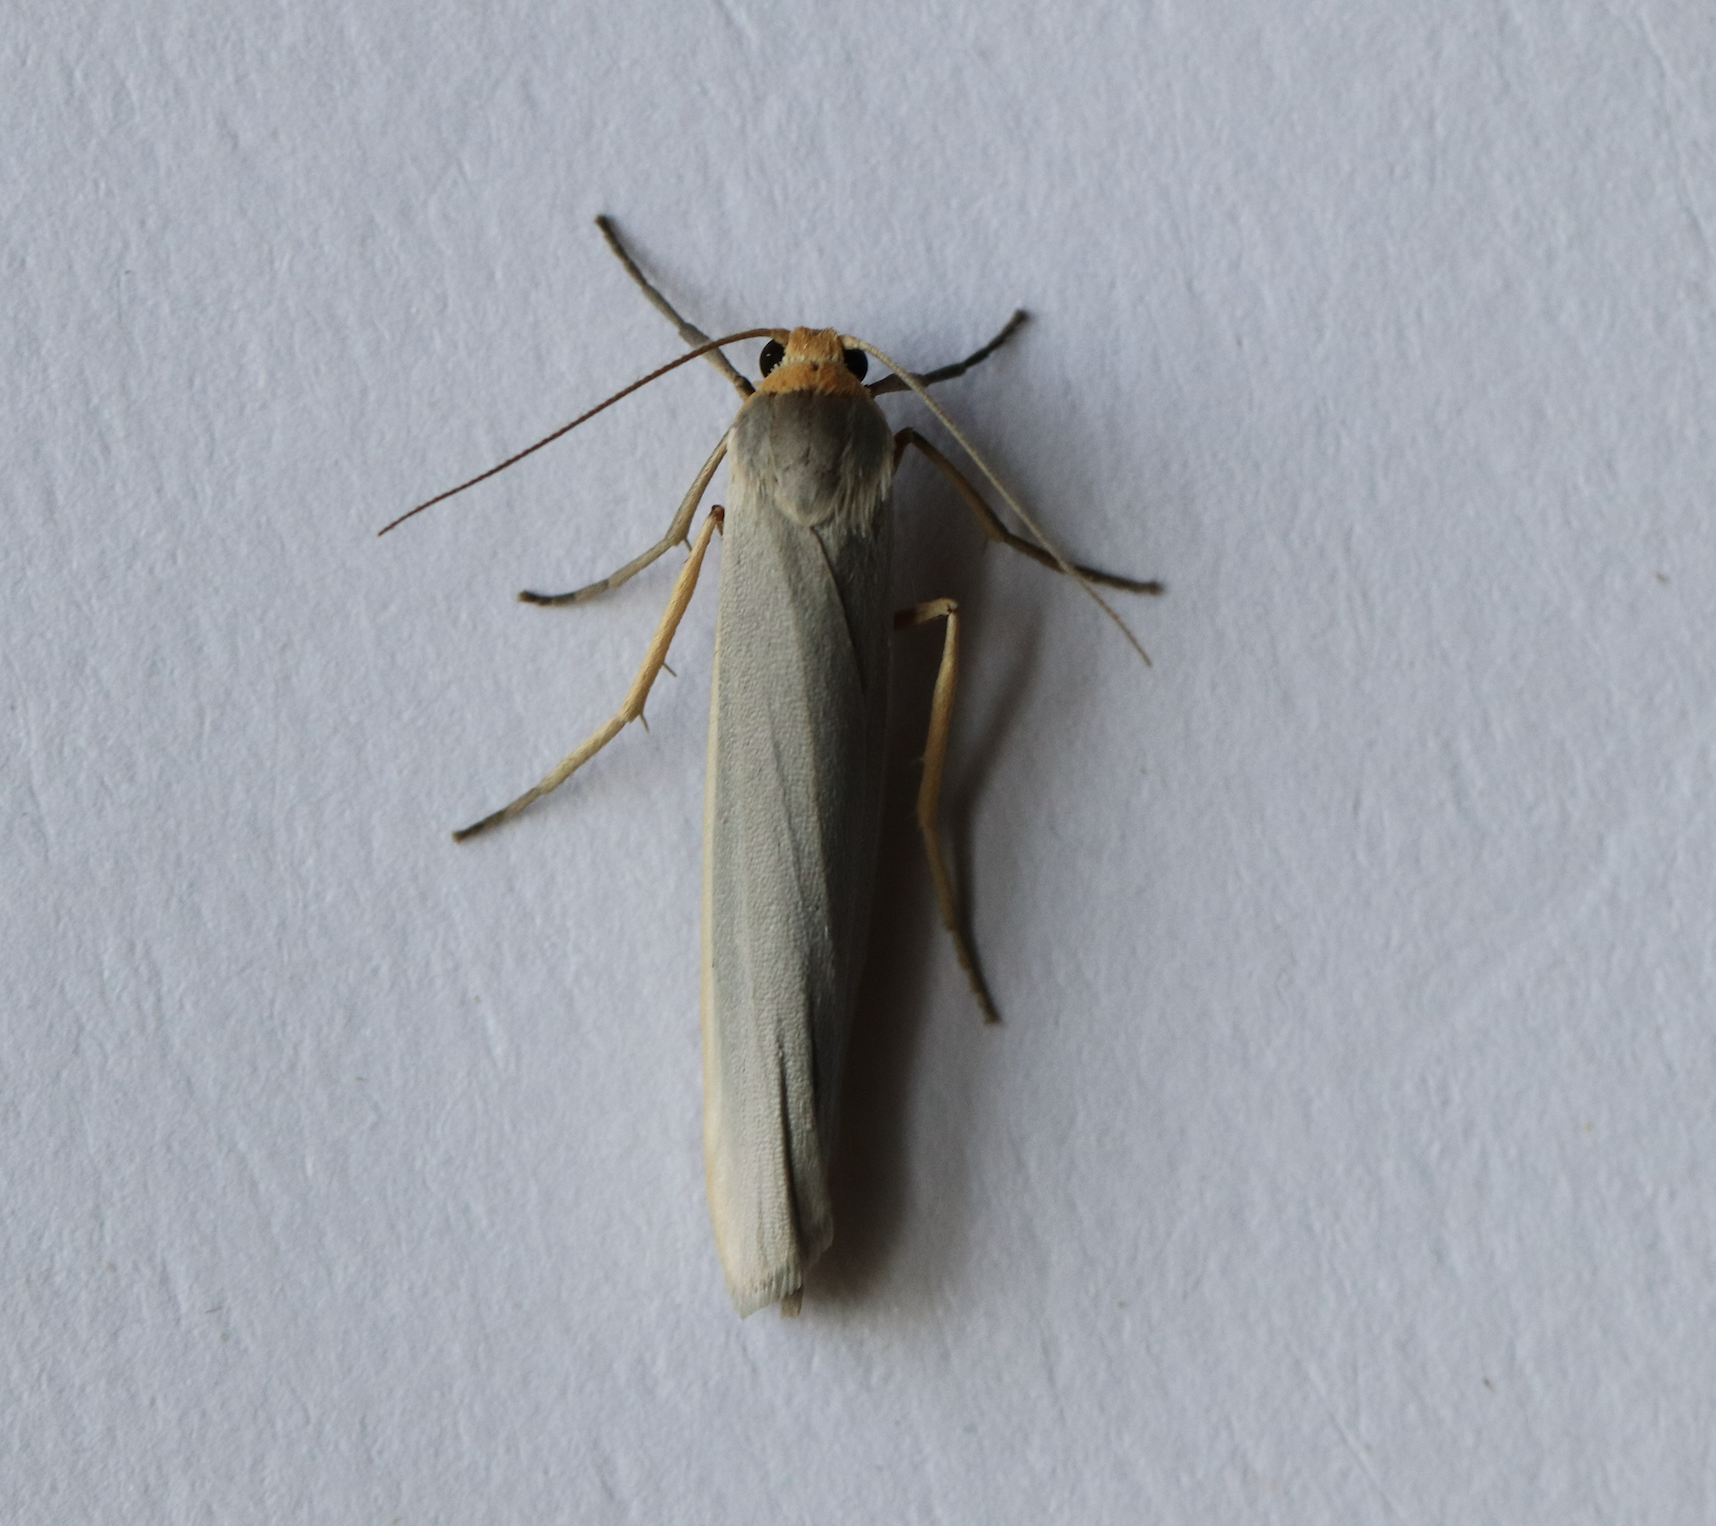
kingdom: Animalia
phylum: Arthropoda
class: Insecta
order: Lepidoptera
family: Erebidae
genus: Eilema
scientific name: Eilema caniola
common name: Hoary footman
